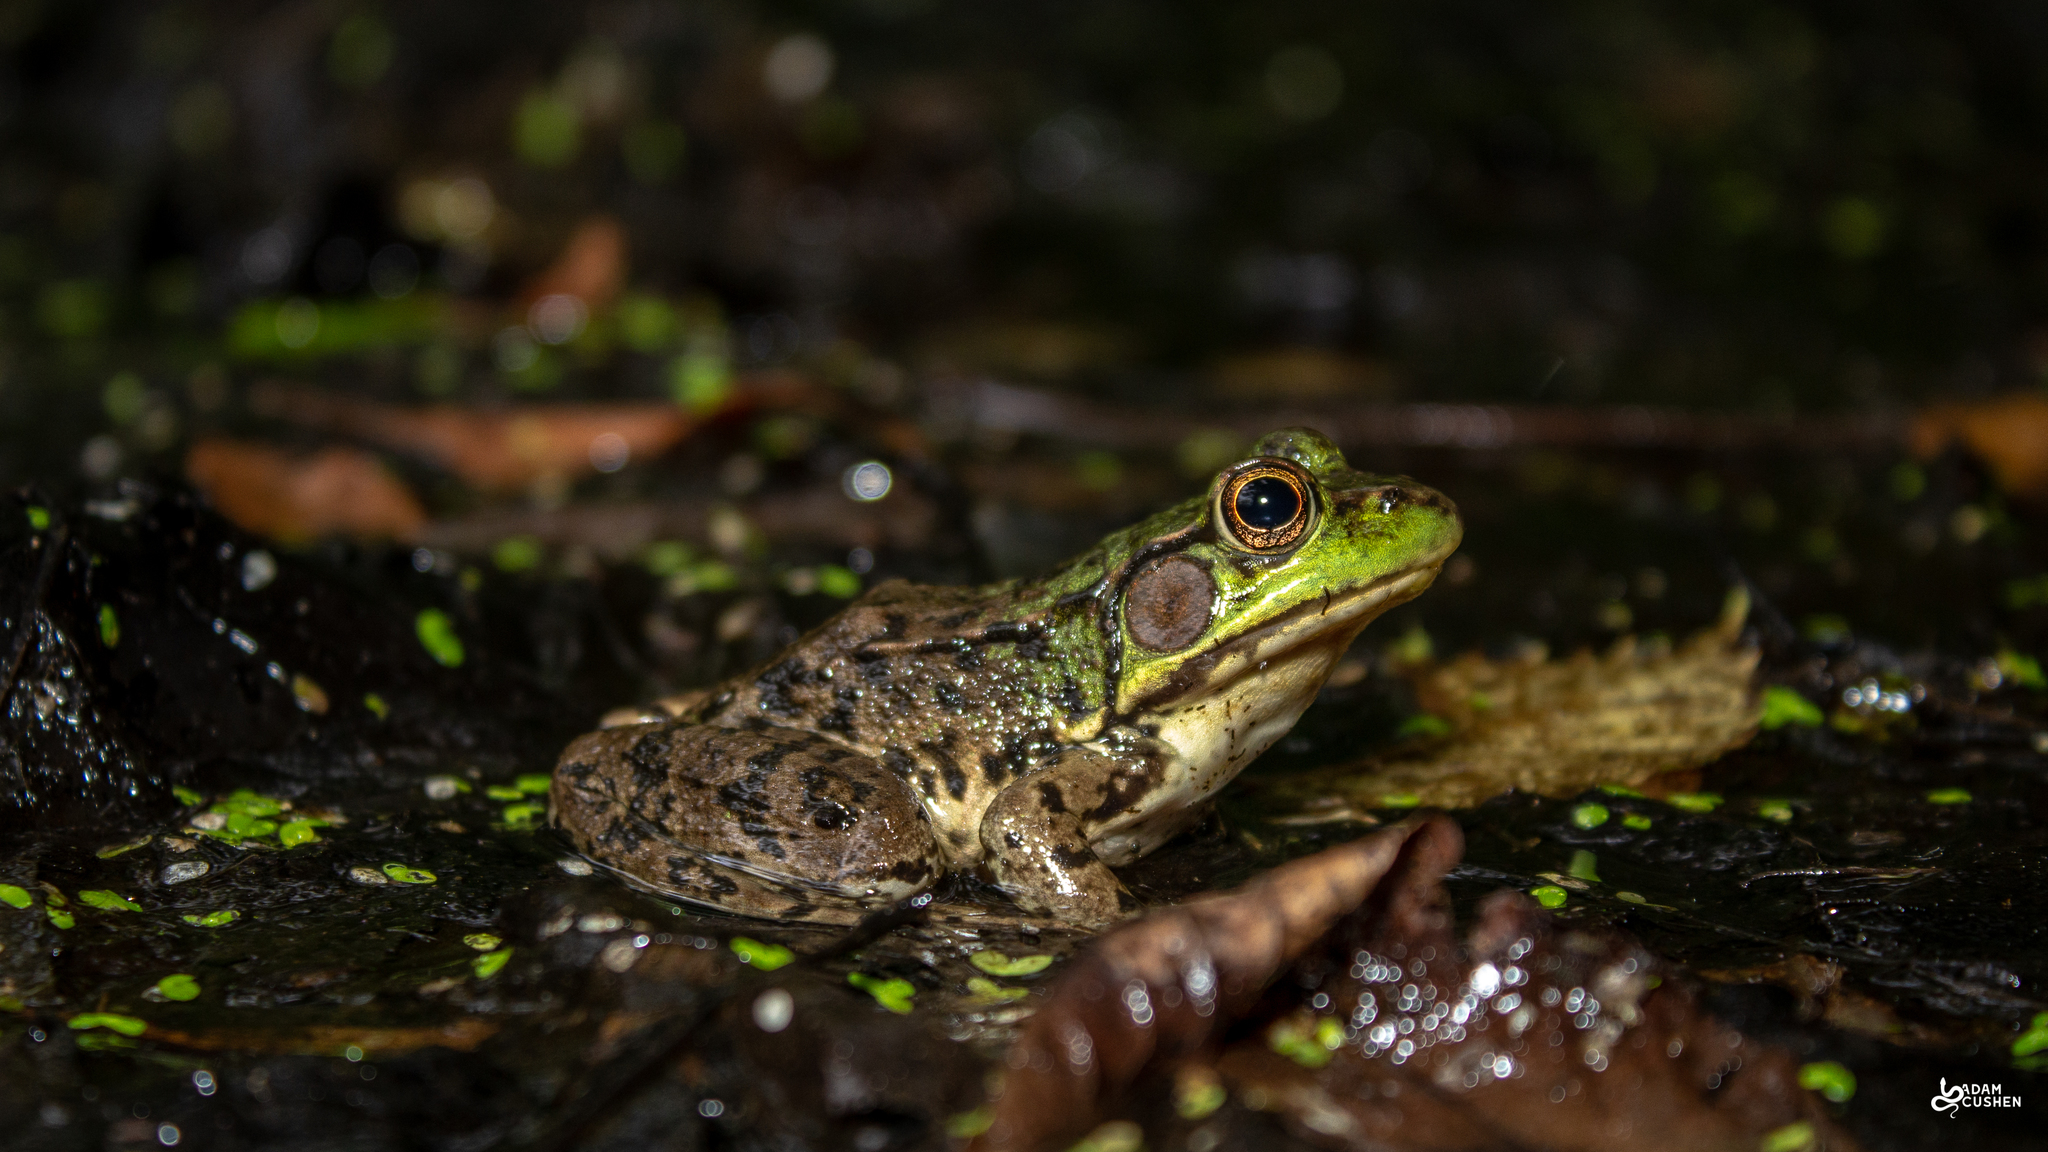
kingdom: Animalia
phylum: Chordata
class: Amphibia
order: Anura
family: Ranidae
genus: Lithobates
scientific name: Lithobates clamitans
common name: Green frog
